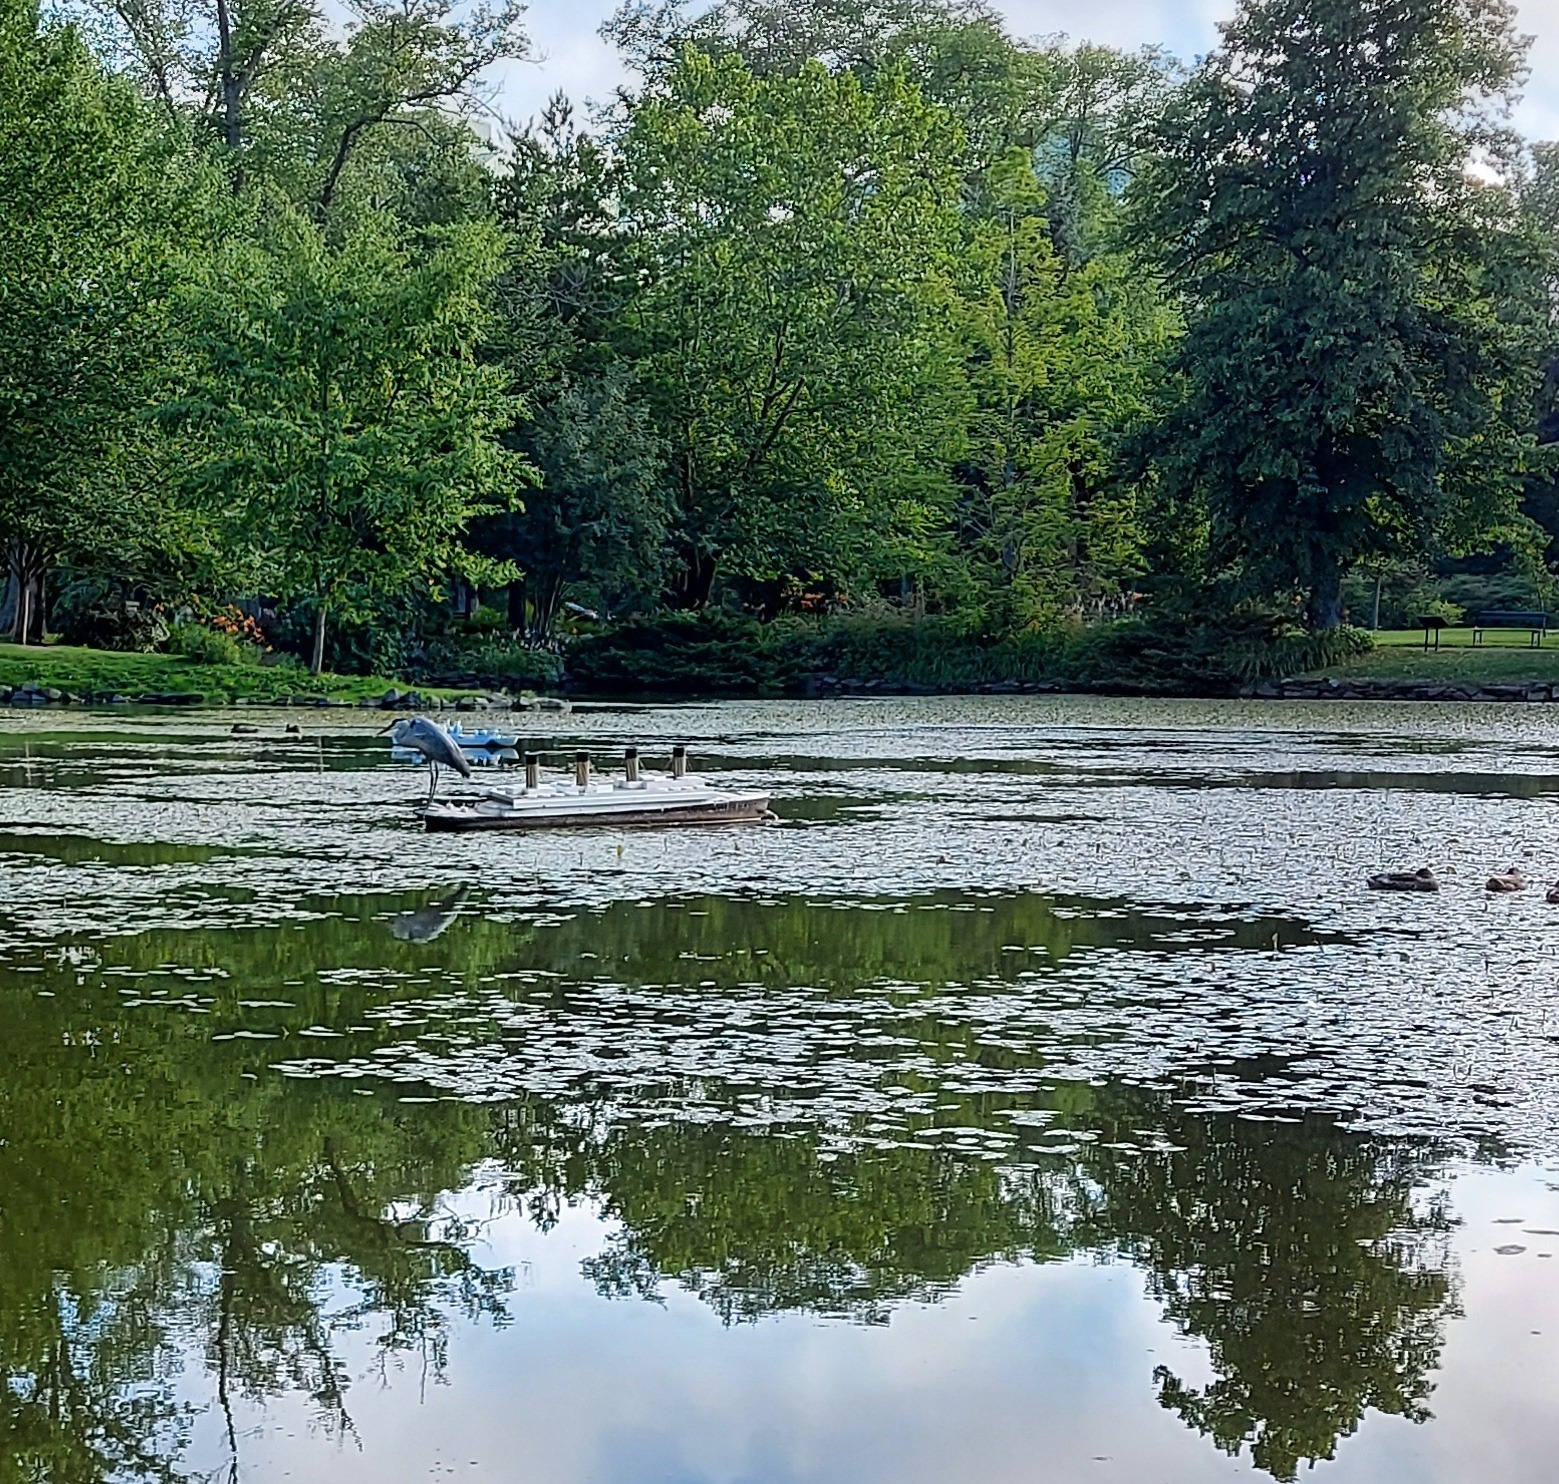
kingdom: Animalia
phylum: Chordata
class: Aves
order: Pelecaniformes
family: Ardeidae
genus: Ardea
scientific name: Ardea herodias
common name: Great blue heron
